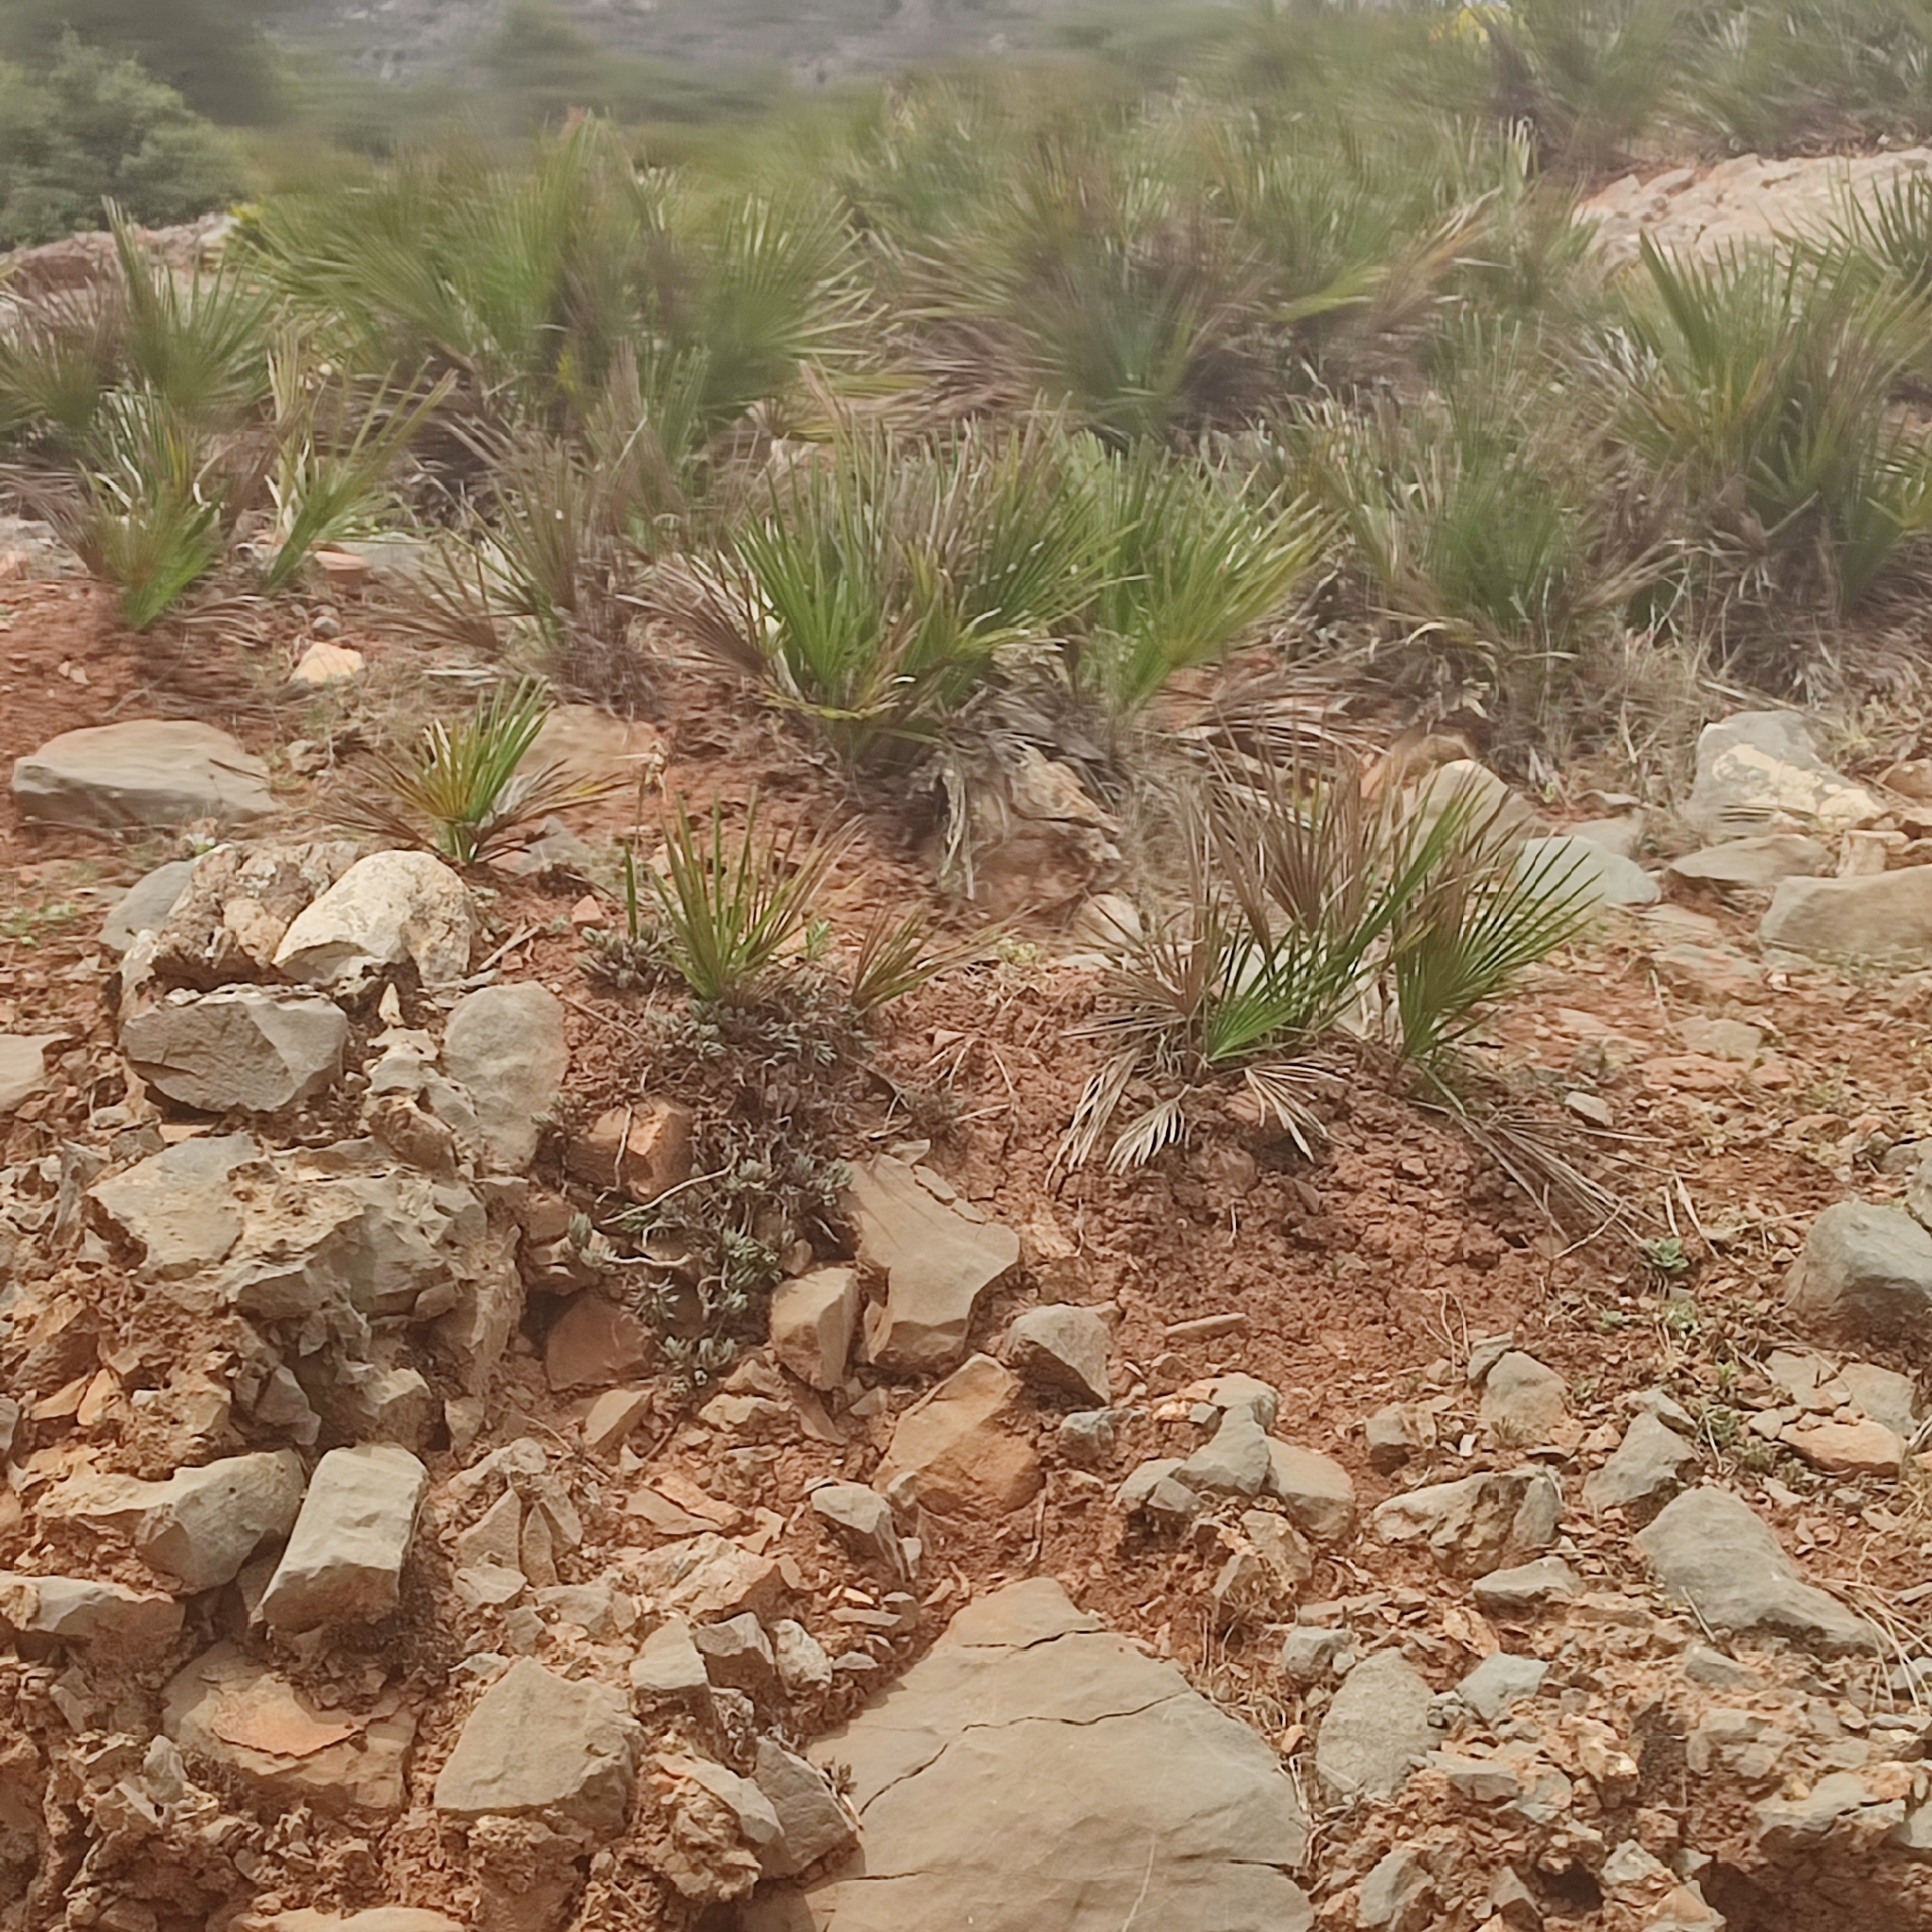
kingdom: Plantae
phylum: Tracheophyta
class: Liliopsida
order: Arecales
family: Arecaceae
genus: Chamaerops
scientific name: Chamaerops humilis
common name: Dwarf fan palm
